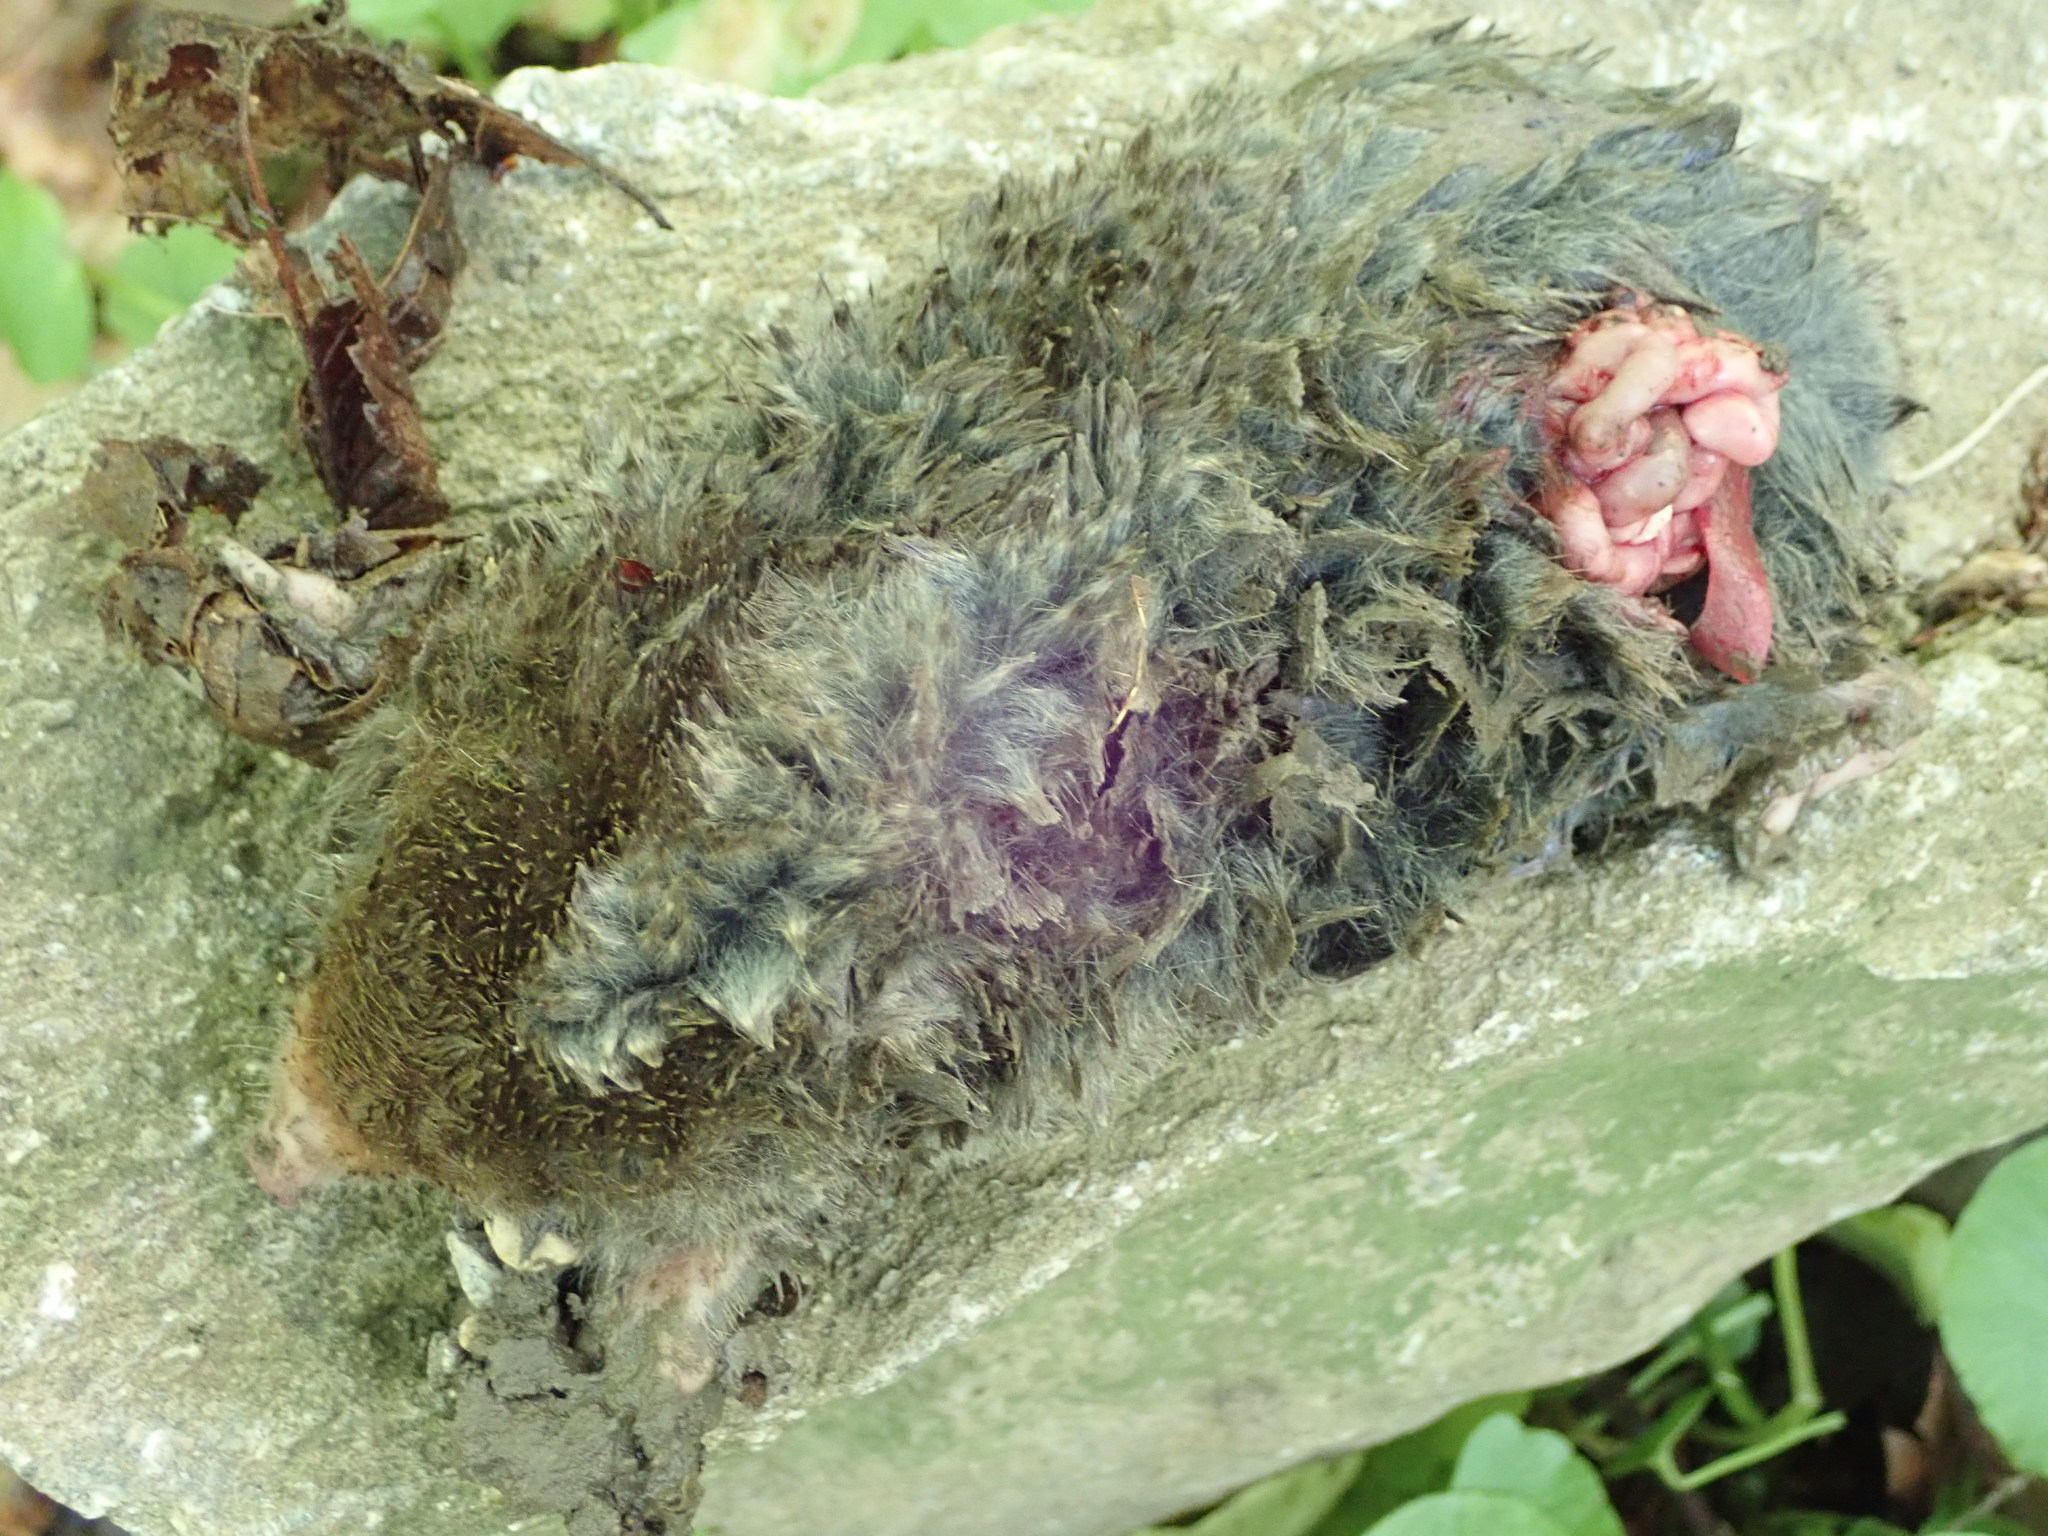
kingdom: Animalia
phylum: Chordata
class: Mammalia
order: Soricomorpha
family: Talpidae
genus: Scalopus
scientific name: Scalopus aquaticus
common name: Eastern mole
